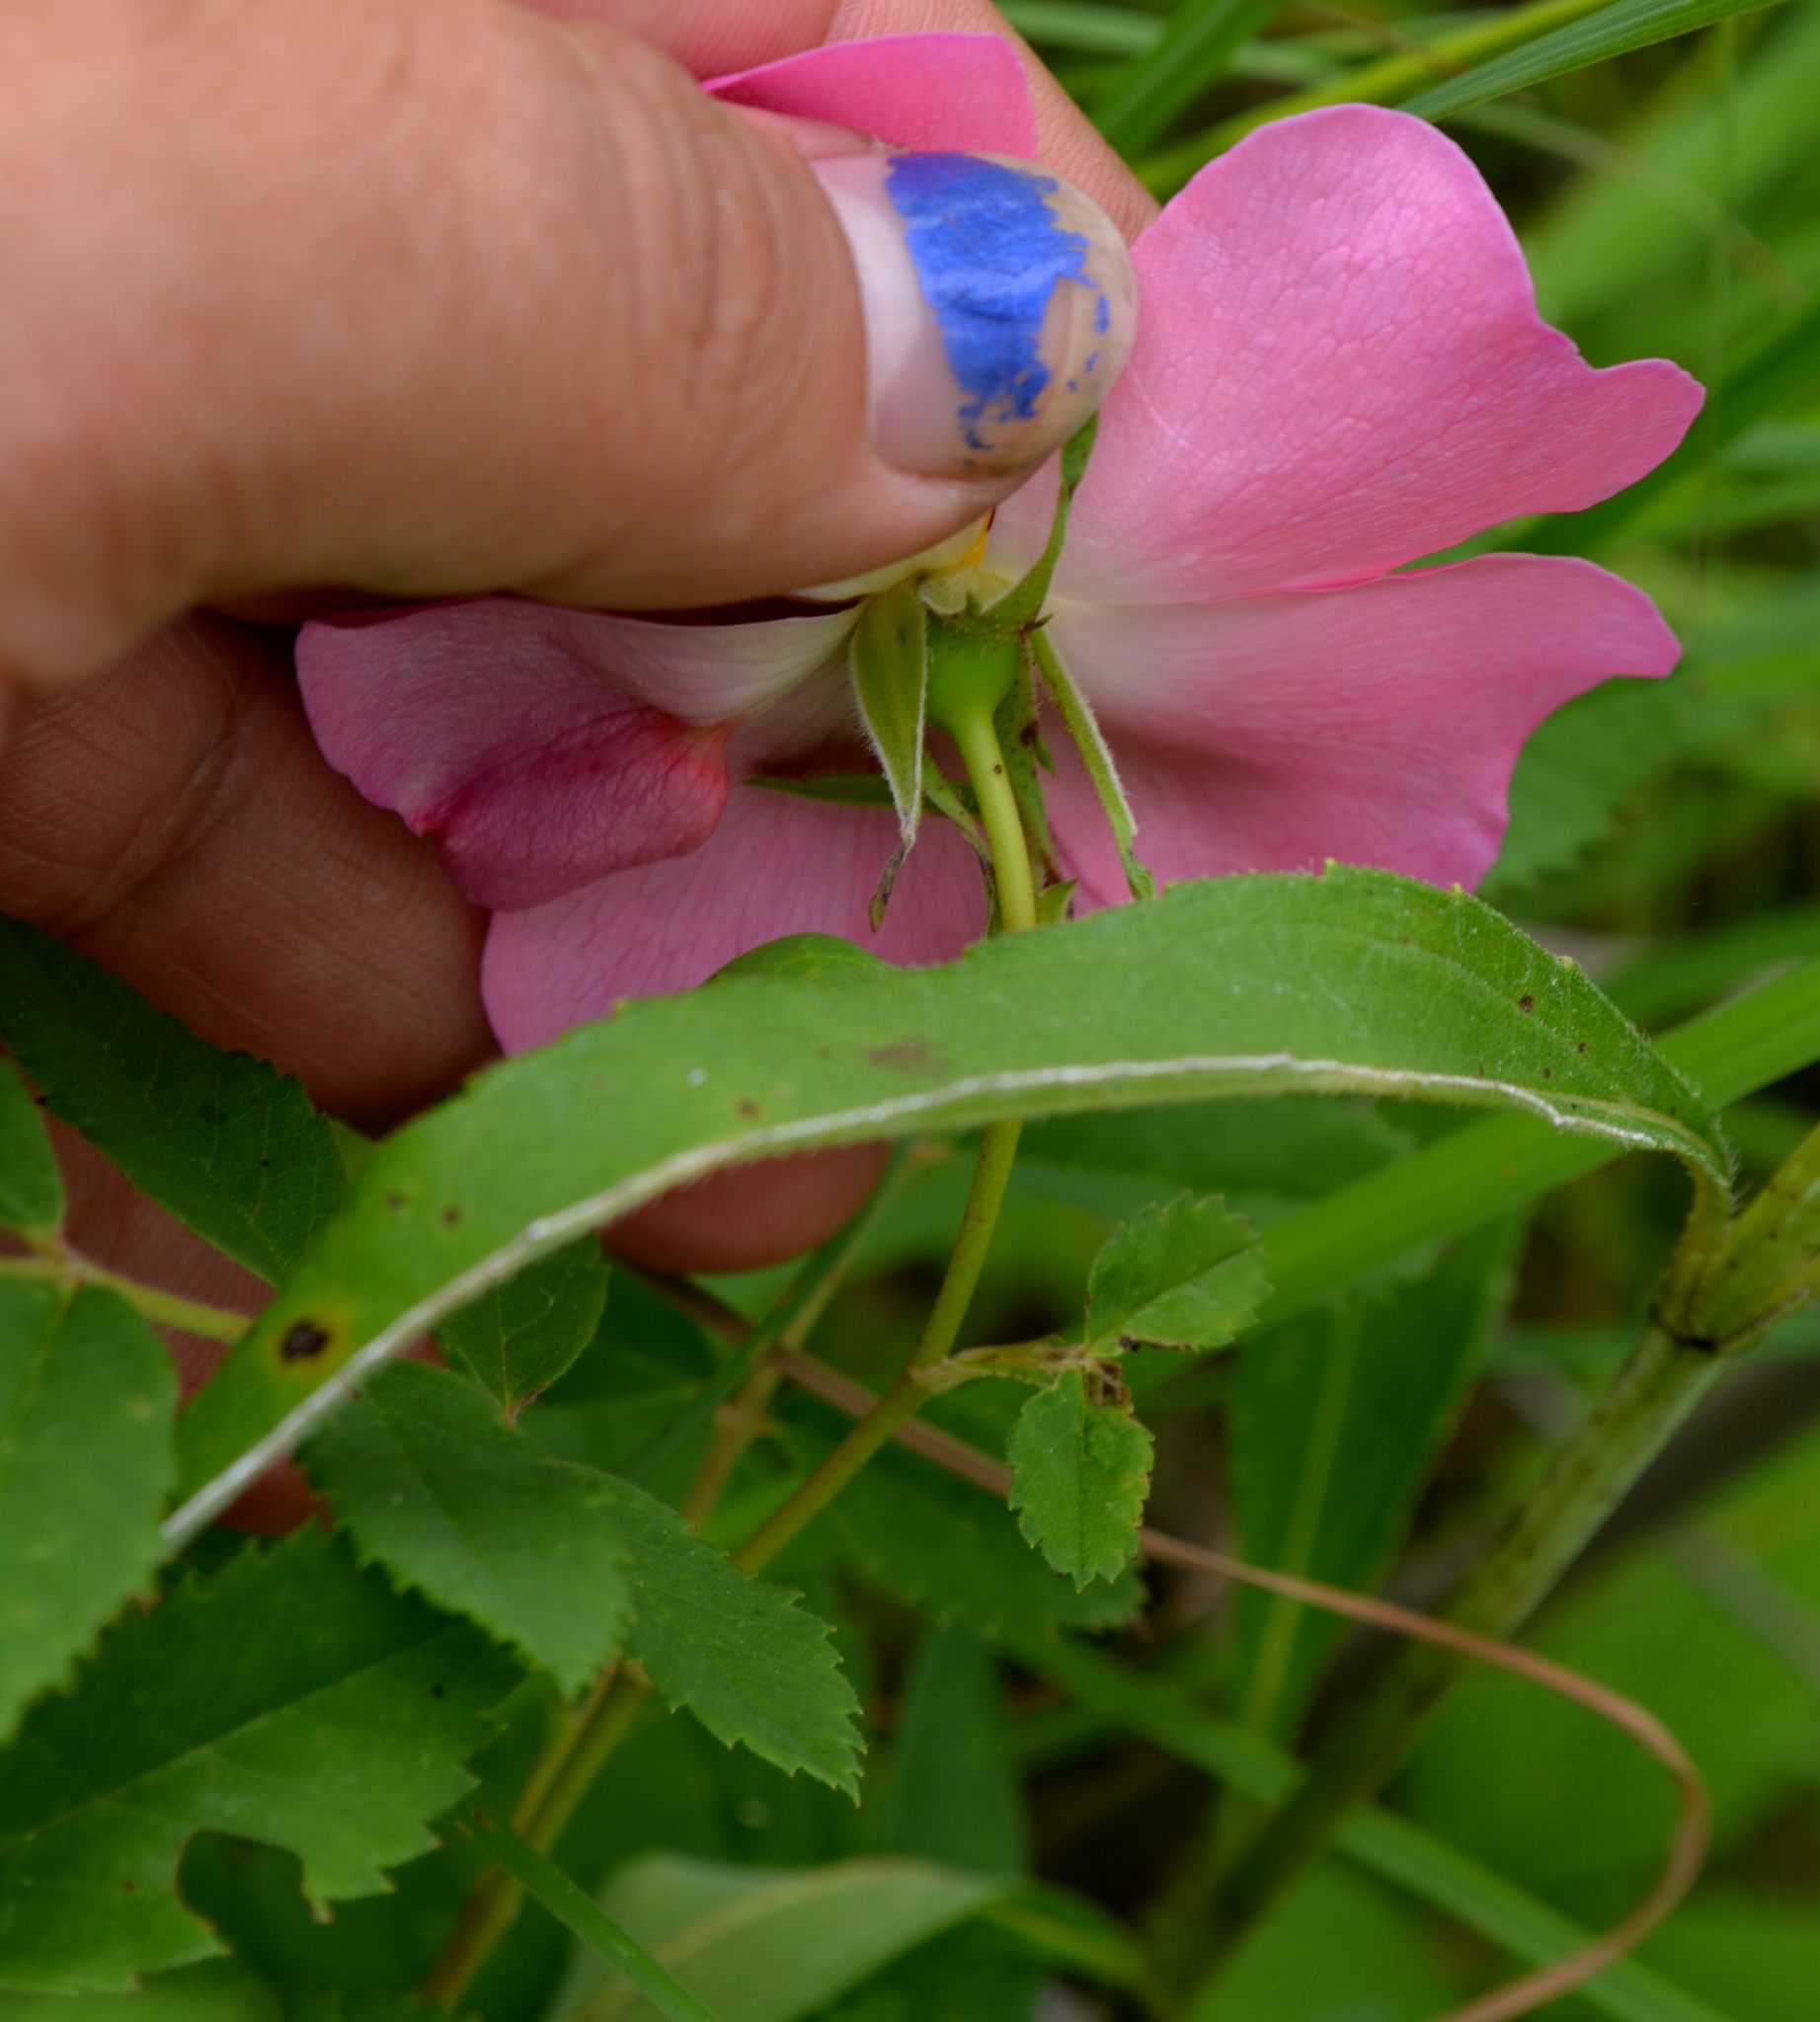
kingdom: Plantae
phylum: Tracheophyta
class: Magnoliopsida
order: Rosales
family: Rosaceae
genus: Rosa
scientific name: Rosa blanda
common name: Smooth rose
